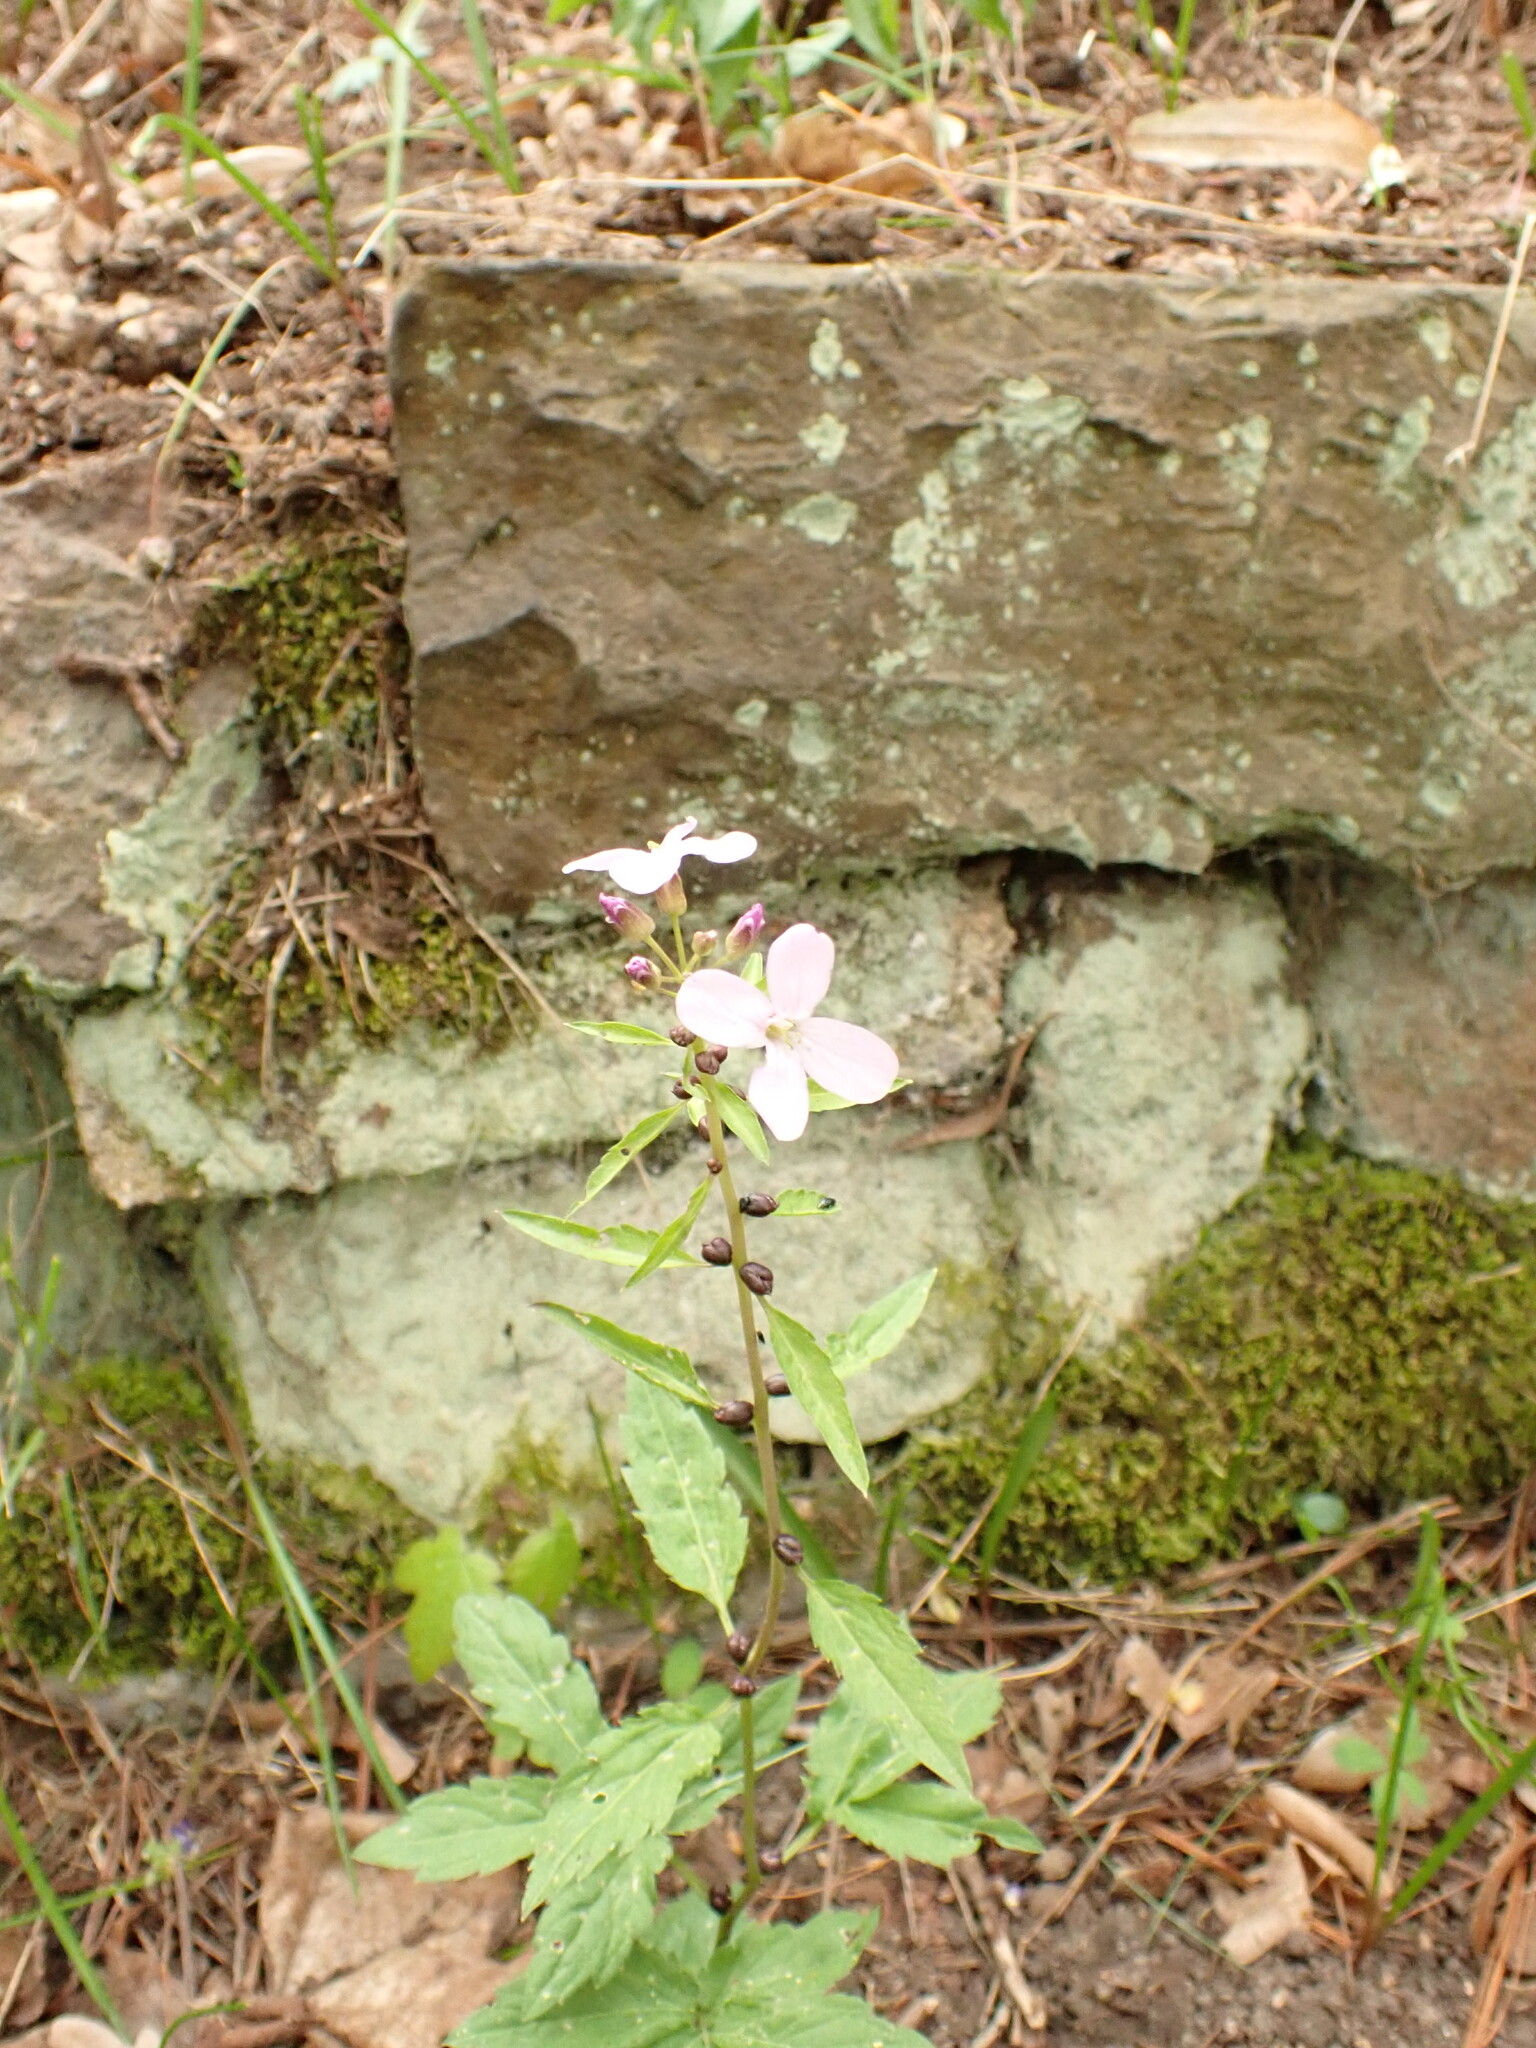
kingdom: Plantae
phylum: Tracheophyta
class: Magnoliopsida
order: Brassicales
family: Brassicaceae
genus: Cardamine
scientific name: Cardamine bulbifera
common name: Coralroot bittercress
